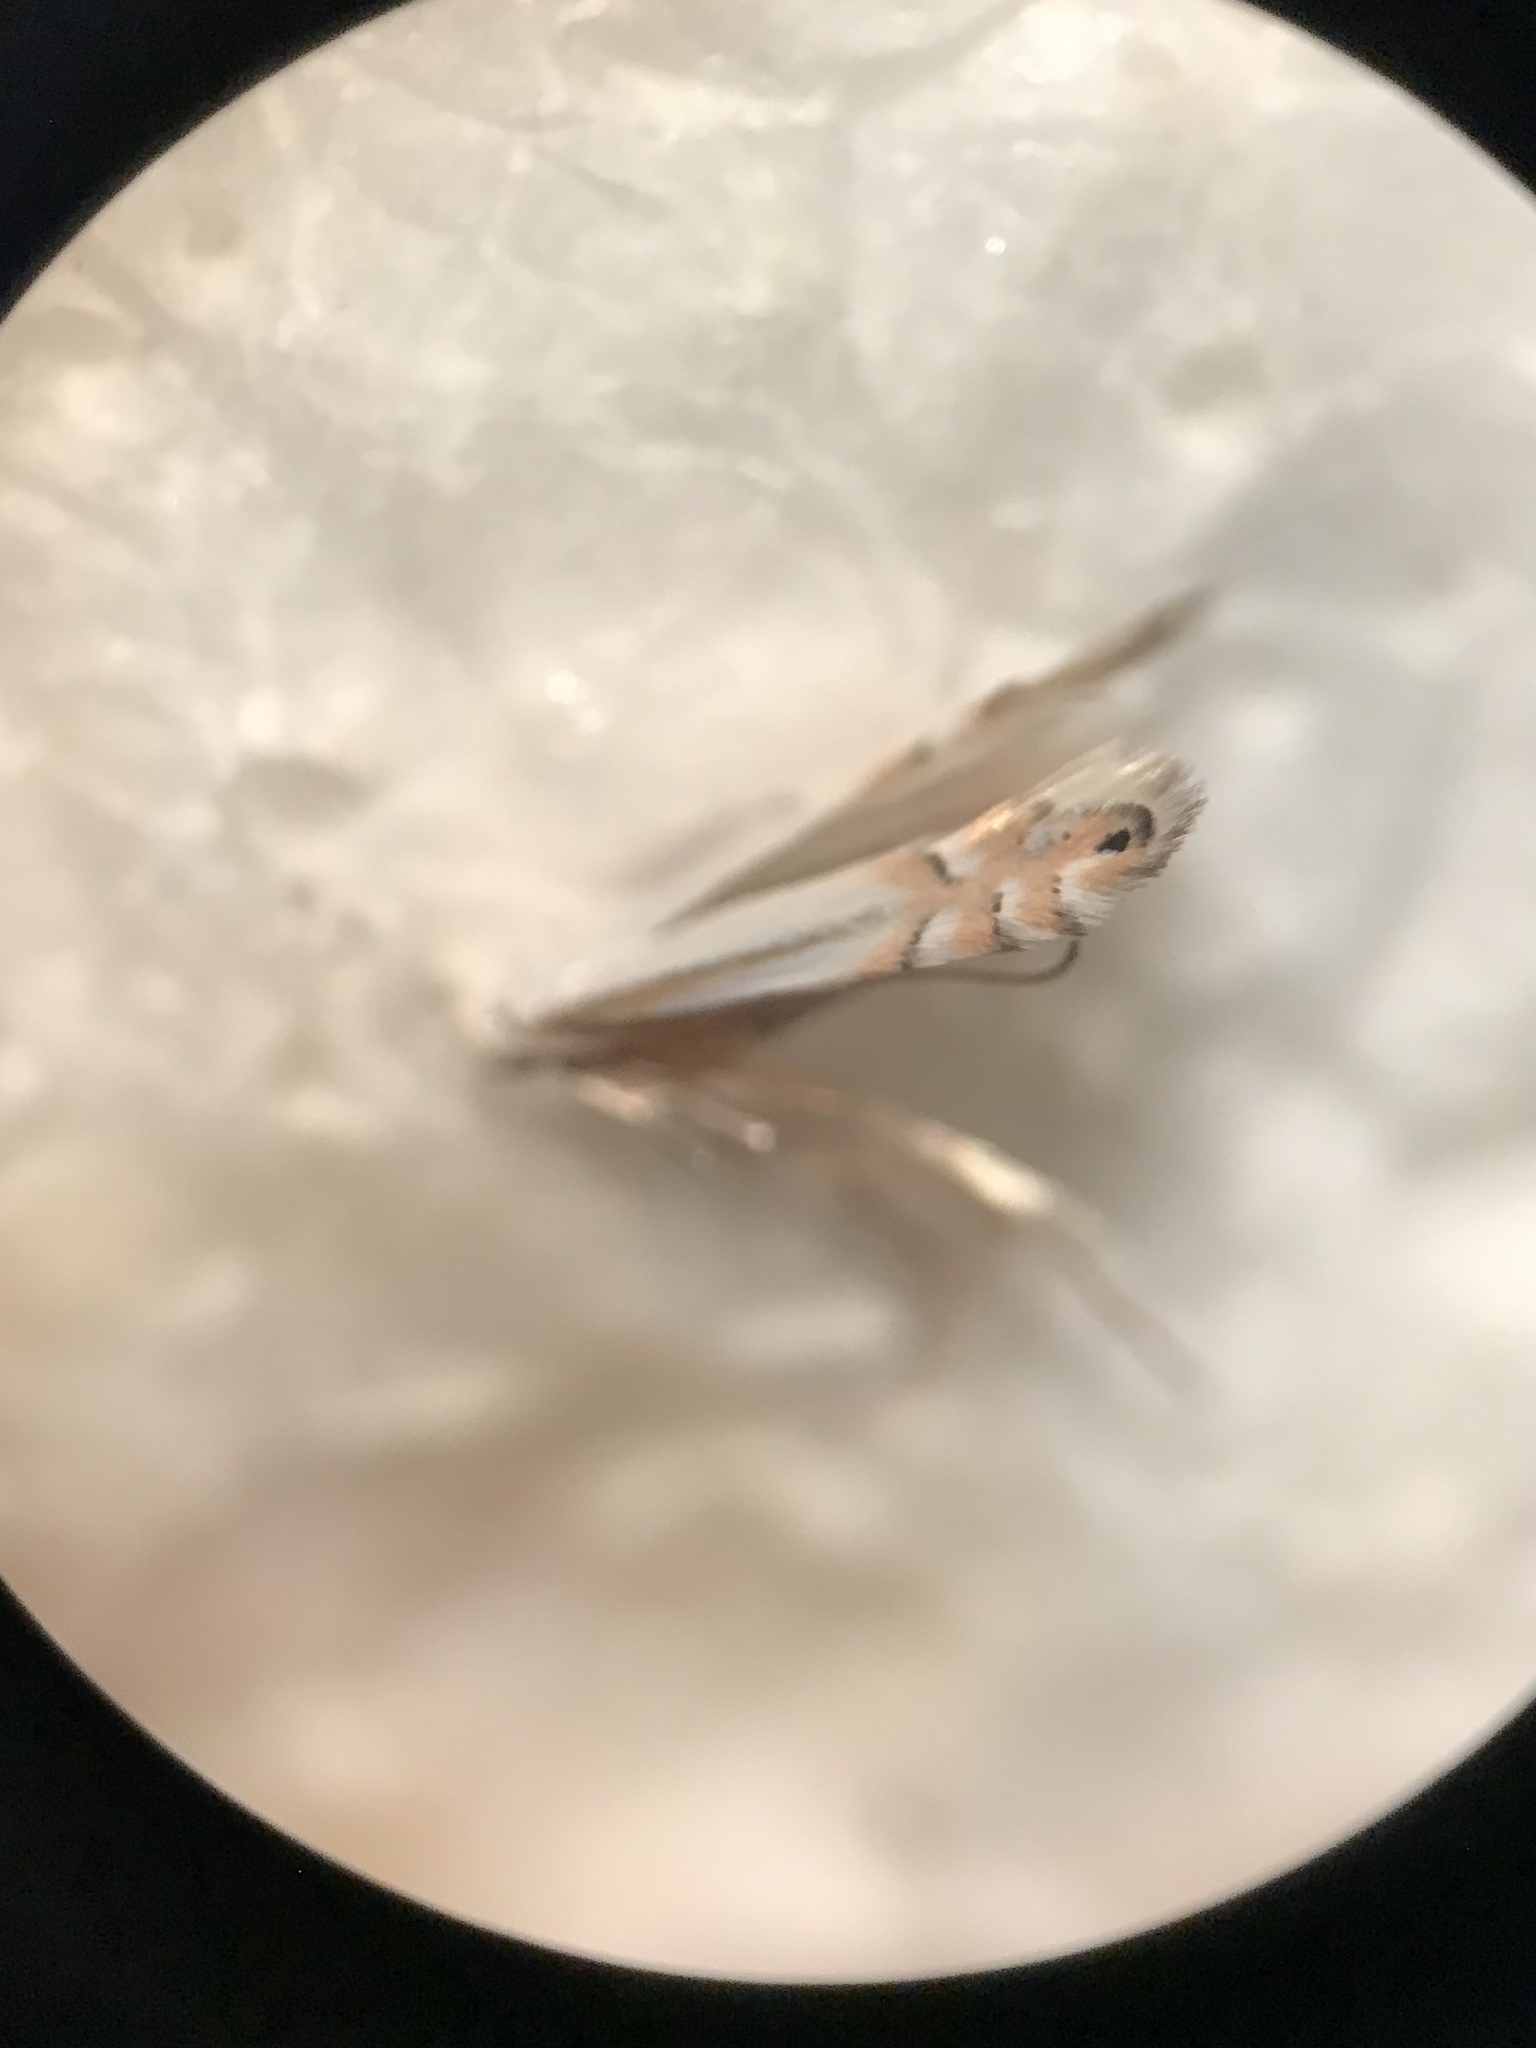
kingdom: Animalia
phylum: Arthropoda
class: Insecta
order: Lepidoptera
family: Gracillariidae
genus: Phyllonorycter
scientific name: Phyllonorycter quercialbella
